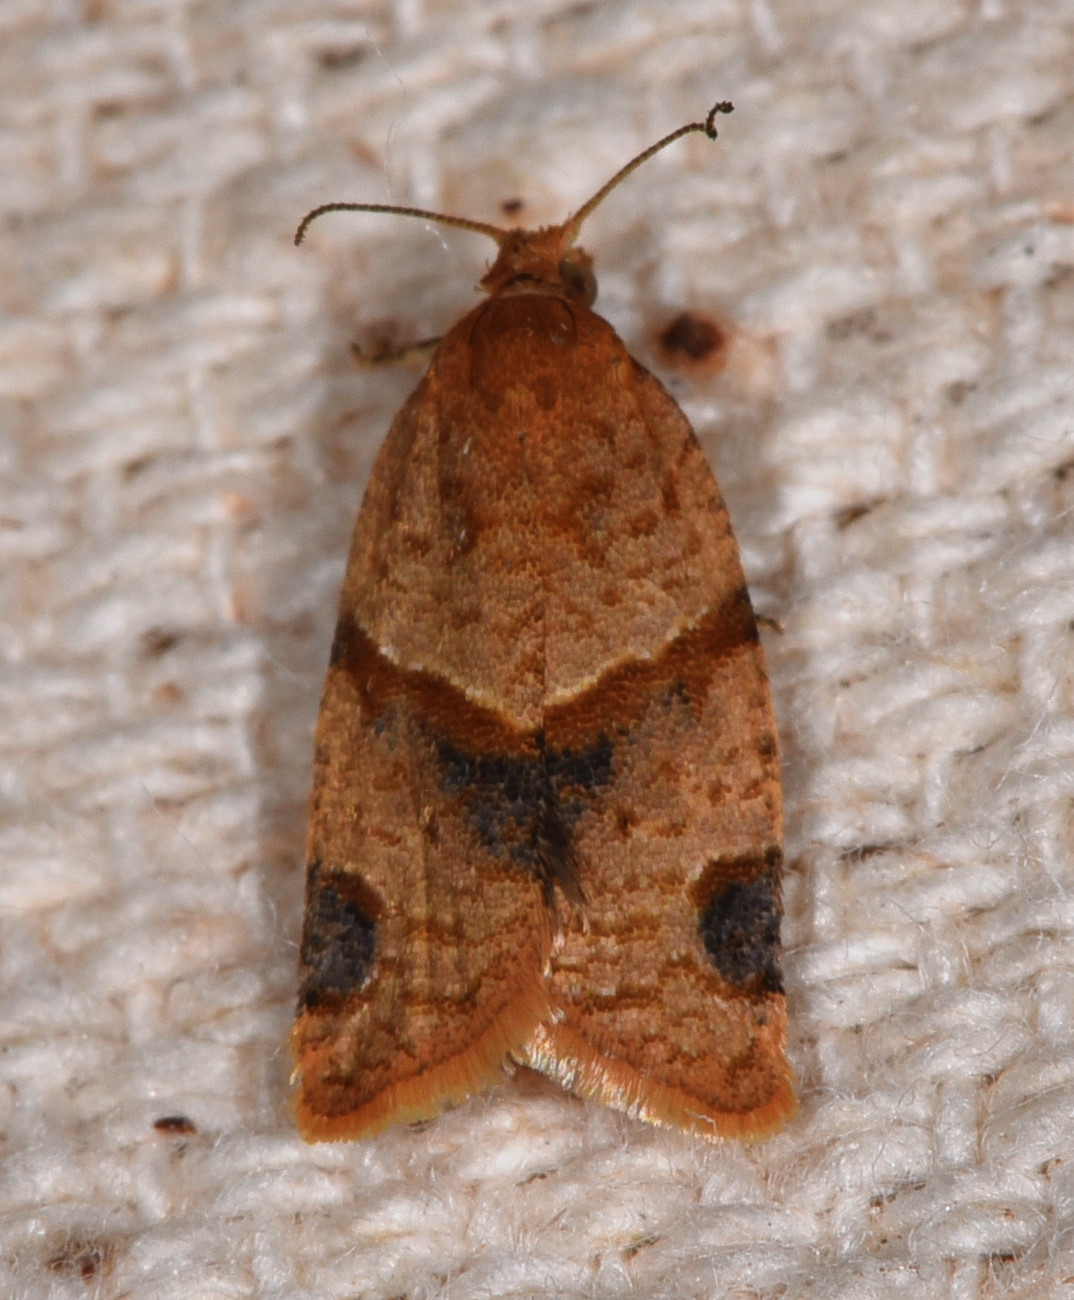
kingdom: Animalia
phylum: Arthropoda
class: Insecta
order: Lepidoptera
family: Tortricidae
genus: Clepsis
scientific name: Clepsis peritana
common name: Garden tortrix
